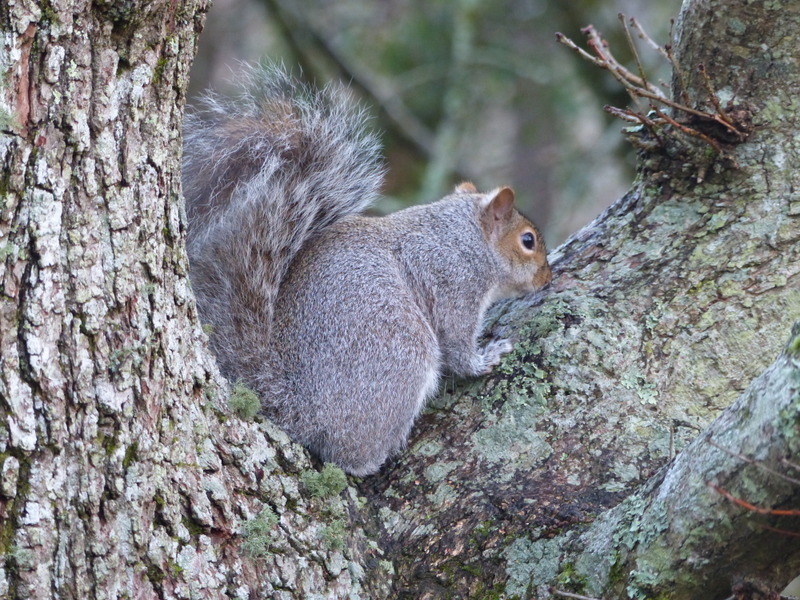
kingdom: Animalia
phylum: Chordata
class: Mammalia
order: Rodentia
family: Sciuridae
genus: Sciurus
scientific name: Sciurus carolinensis
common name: Eastern gray squirrel
